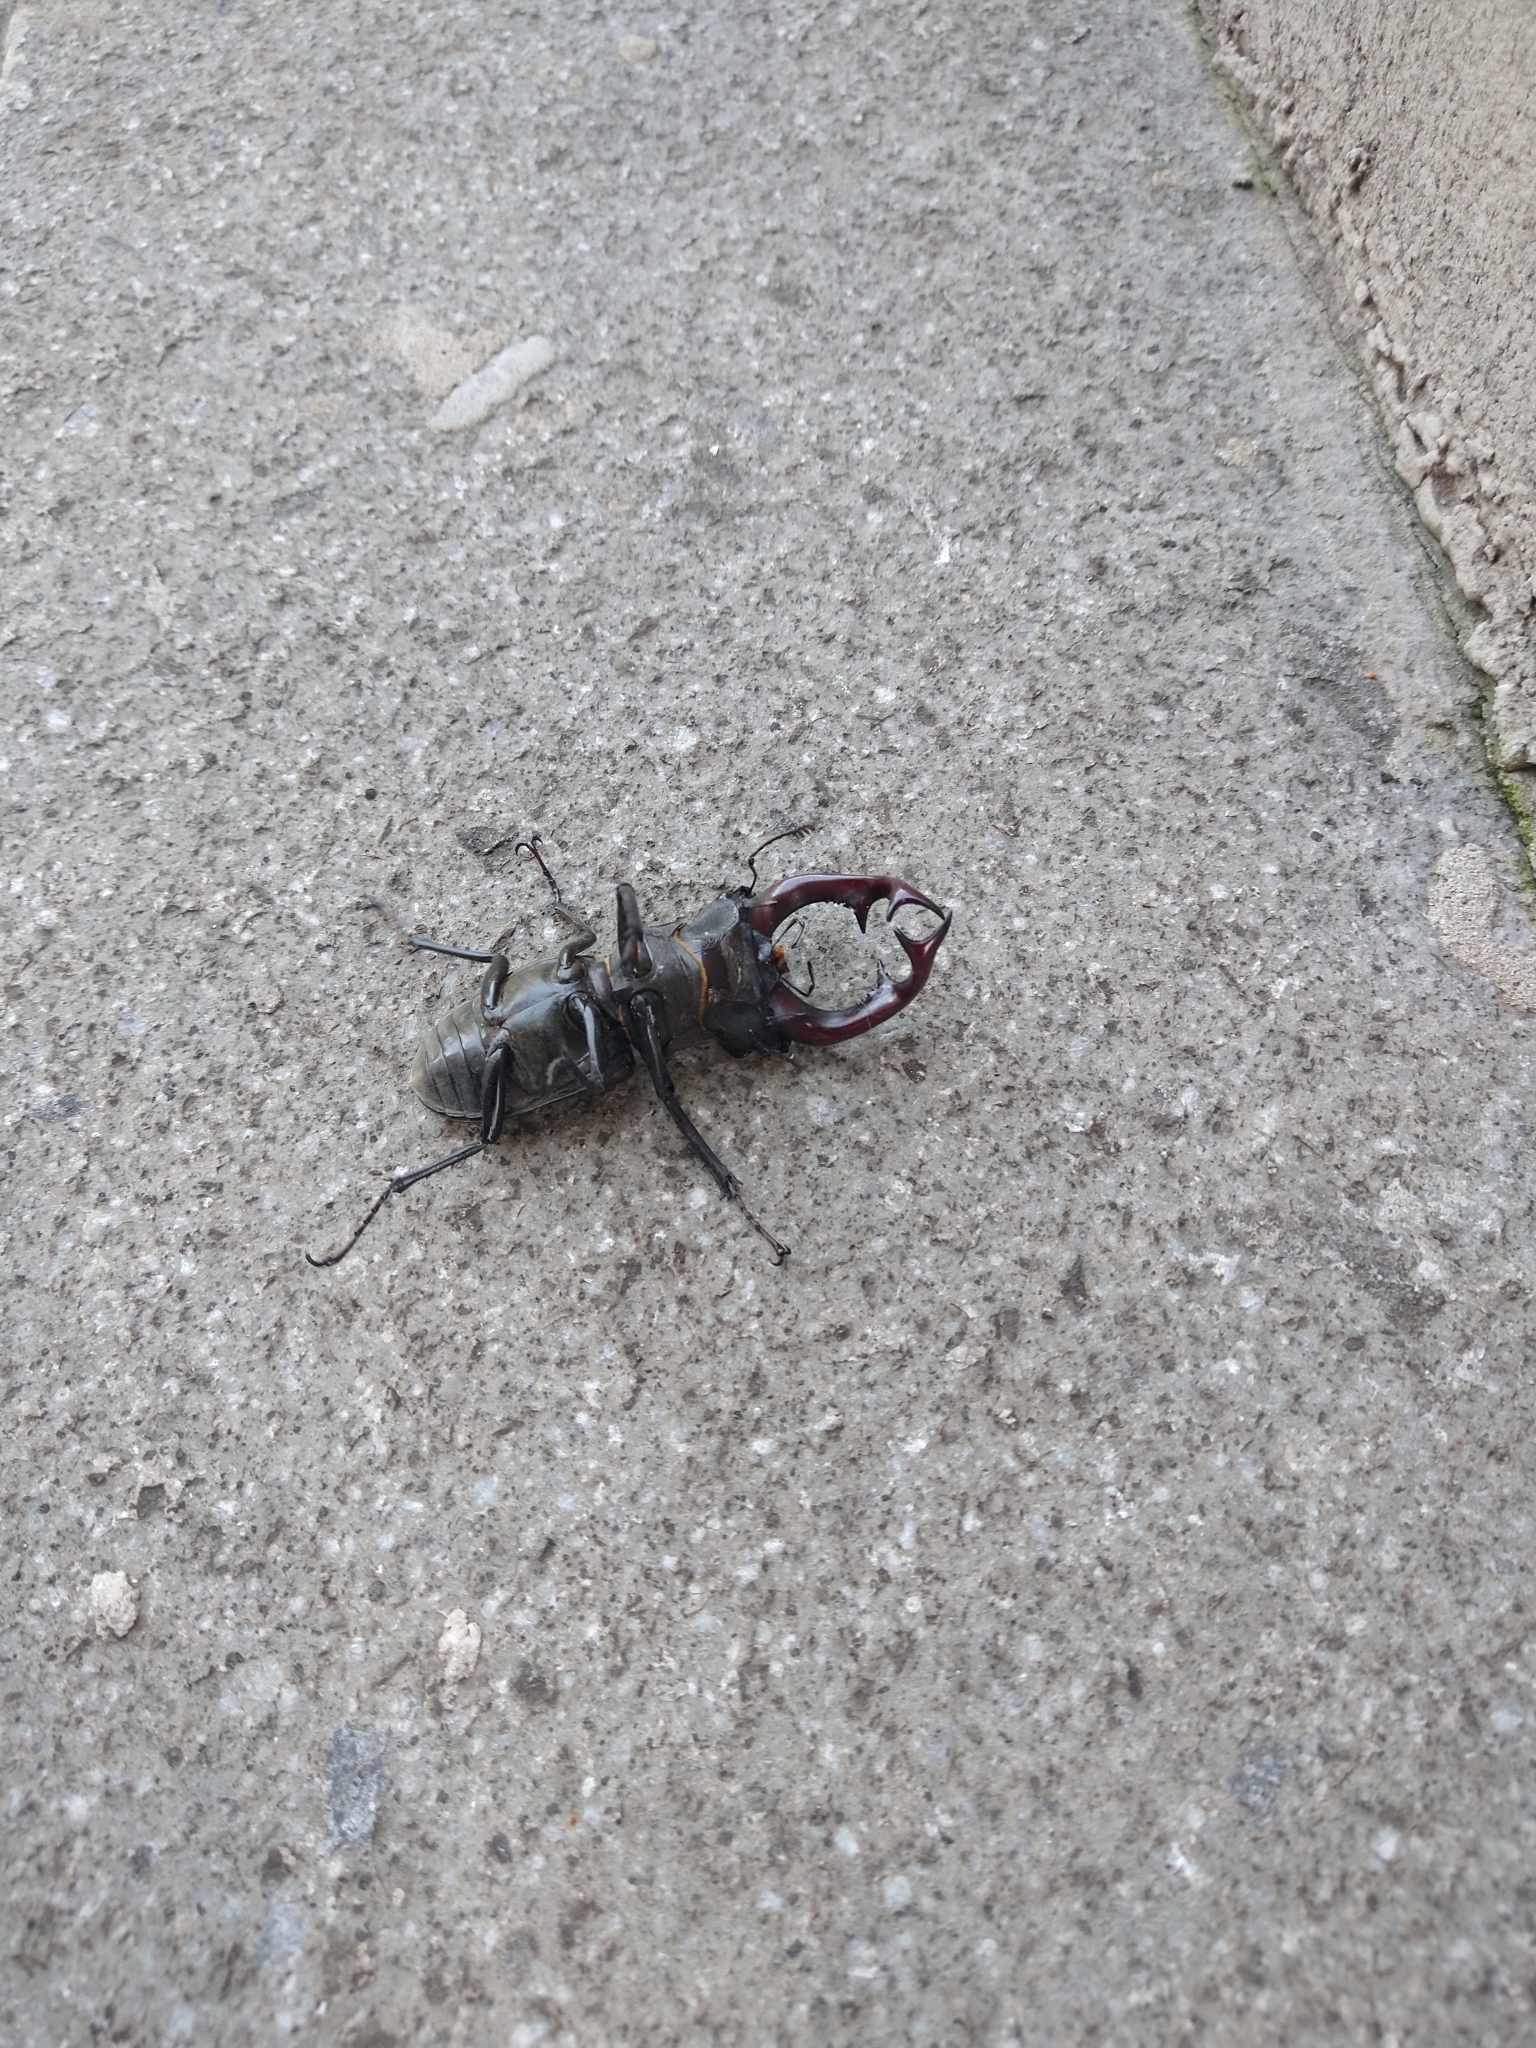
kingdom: Animalia
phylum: Arthropoda
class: Insecta
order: Coleoptera
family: Lucanidae
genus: Lucanus
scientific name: Lucanus cervus
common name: Stag beetle
